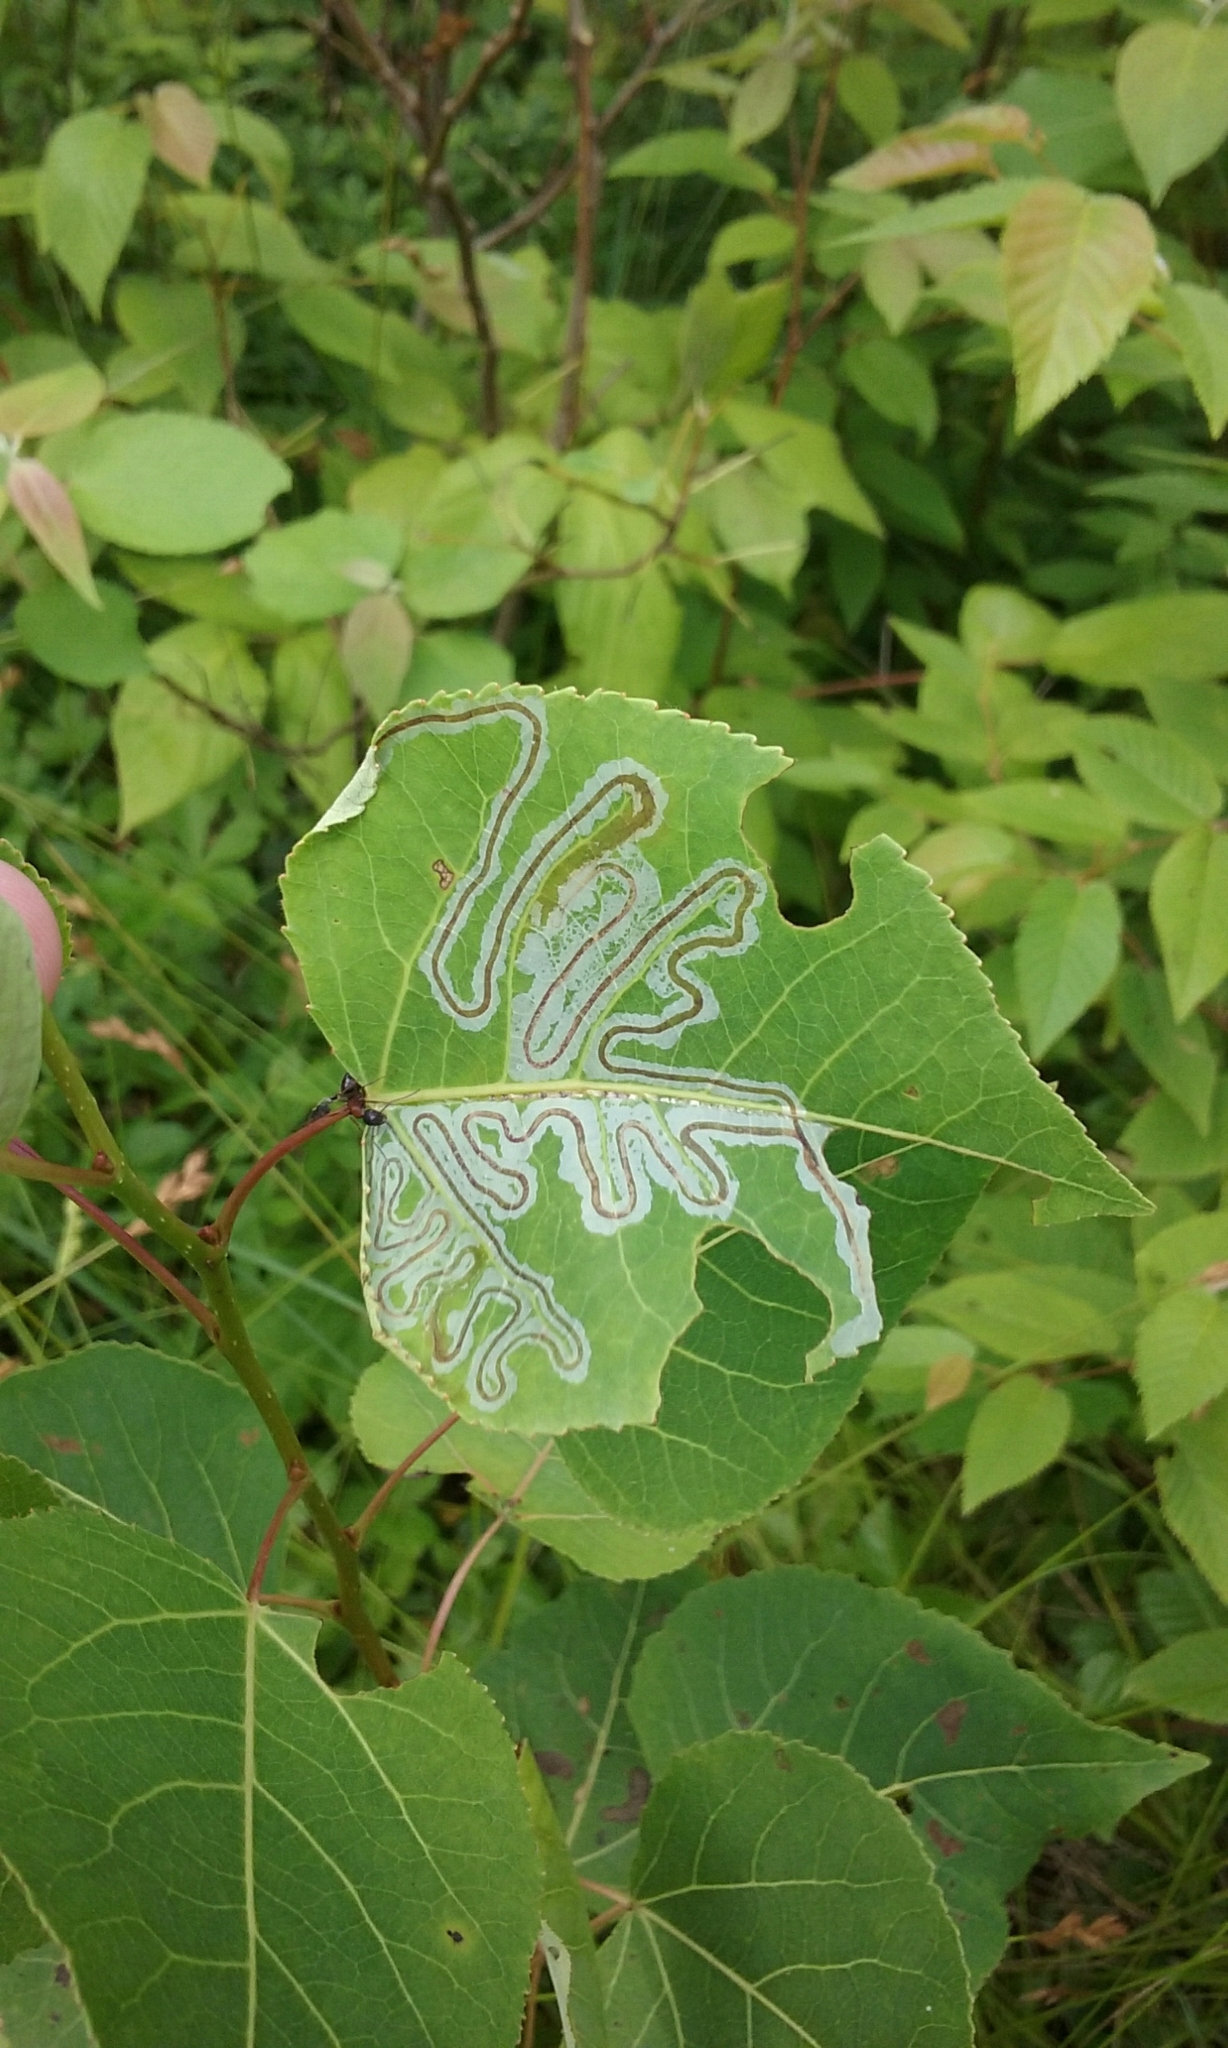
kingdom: Animalia
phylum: Arthropoda
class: Insecta
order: Lepidoptera
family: Gracillariidae
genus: Phyllocnistis
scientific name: Phyllocnistis populiella
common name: Aspen serpentine leafminer moth
